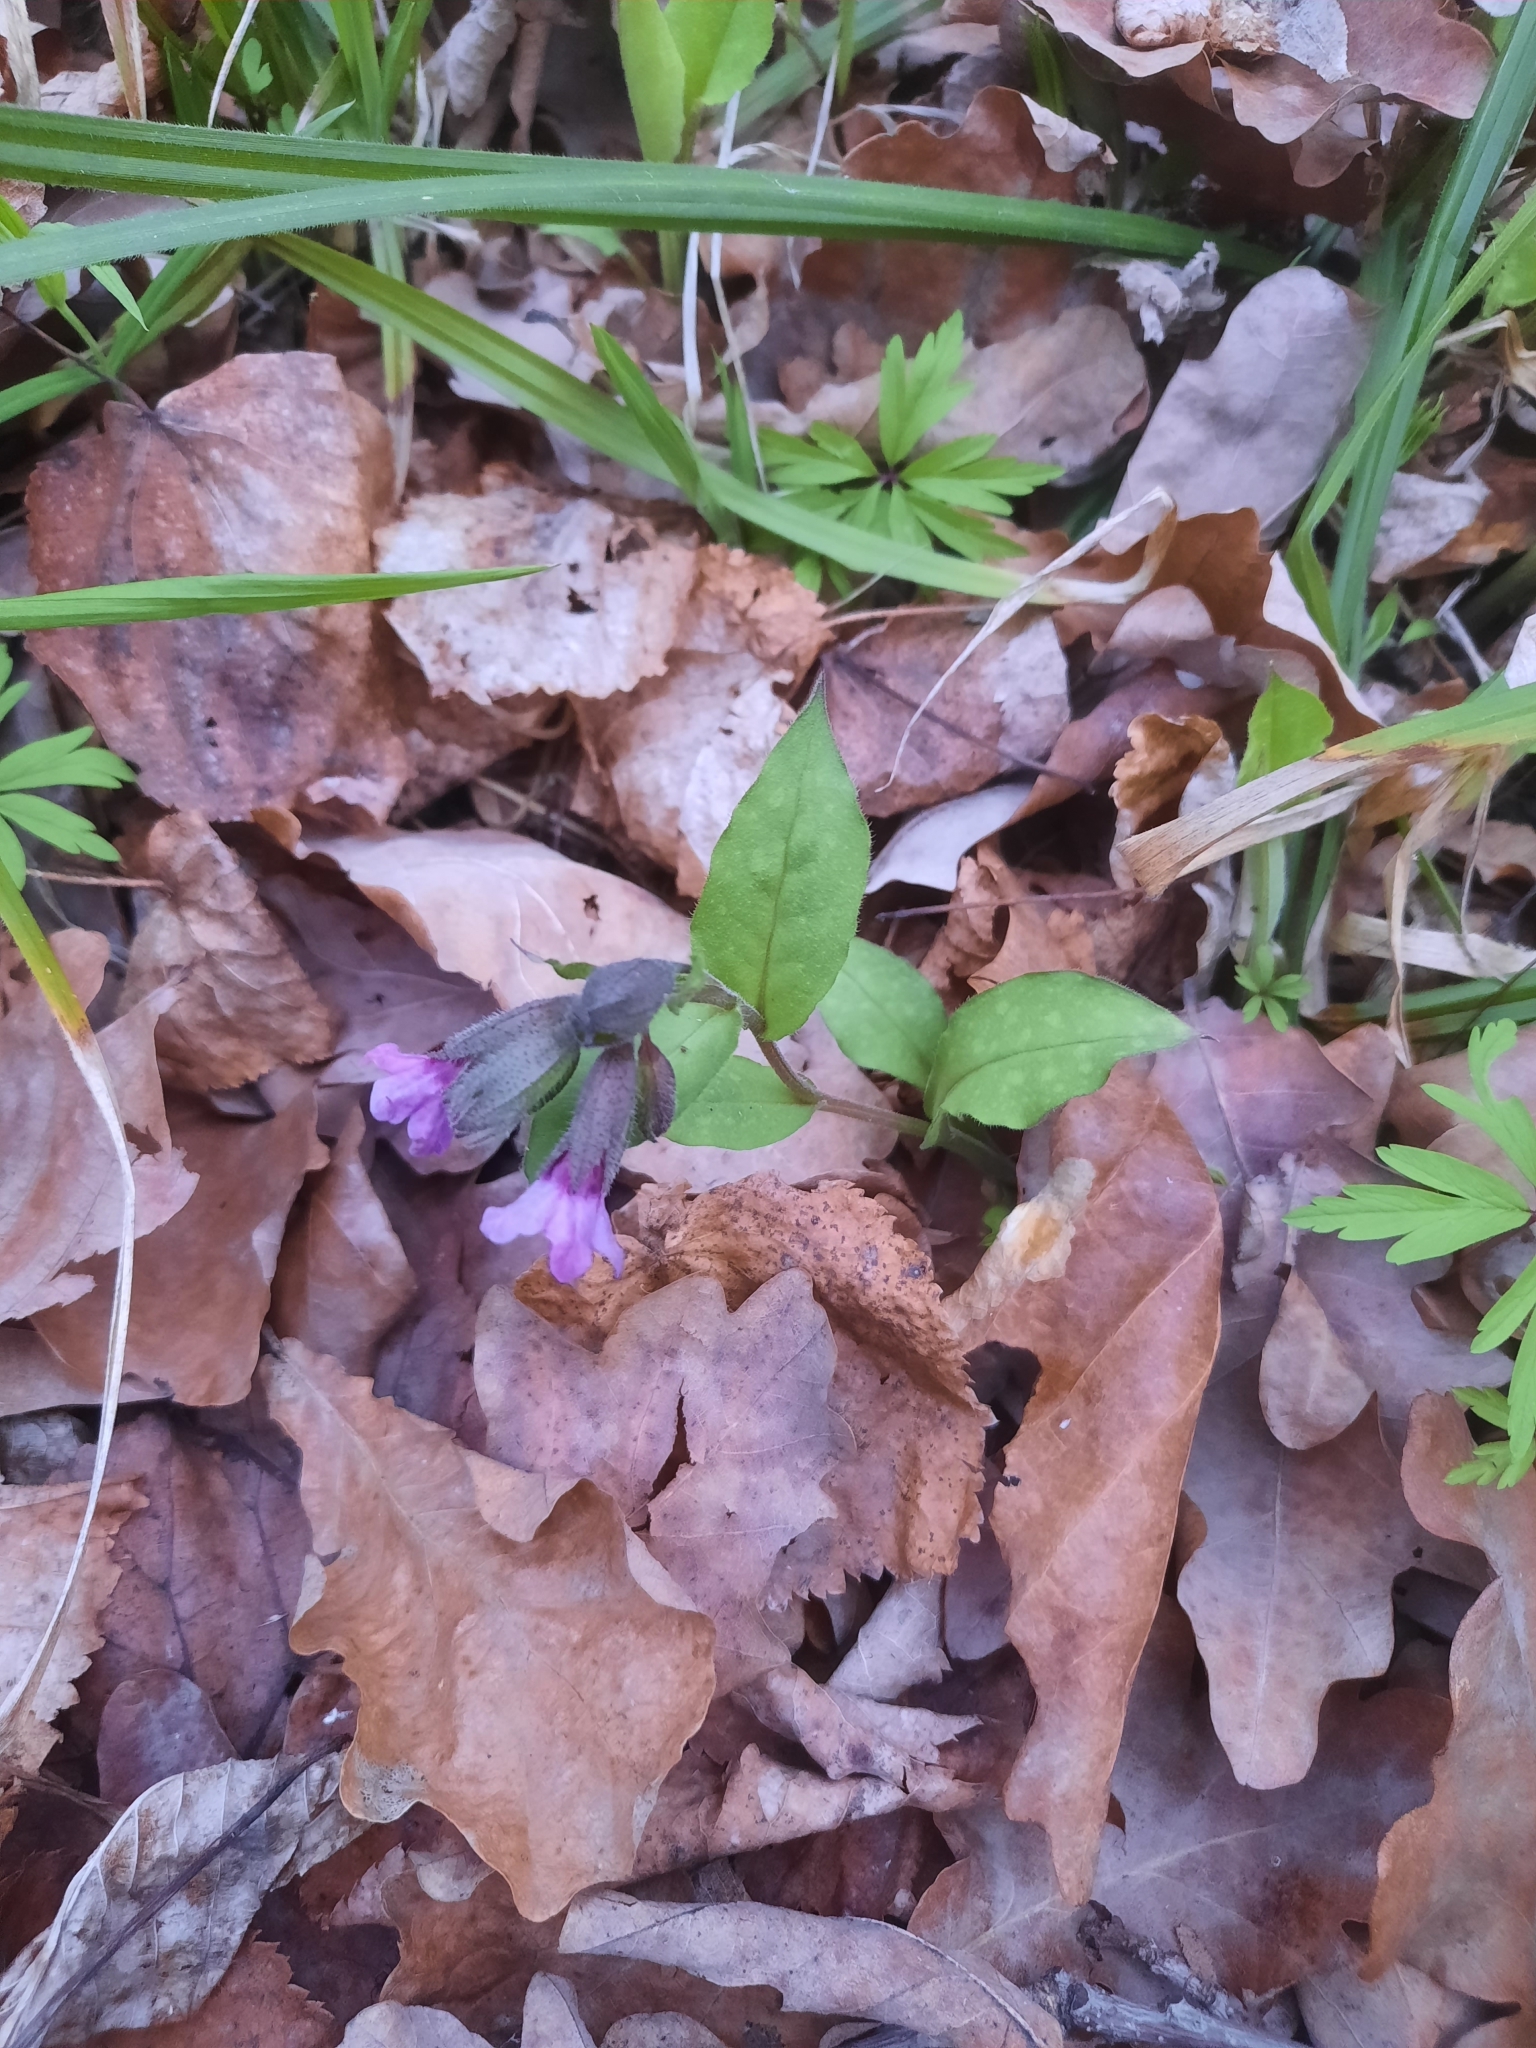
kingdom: Plantae
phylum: Tracheophyta
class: Magnoliopsida
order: Boraginales
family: Boraginaceae
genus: Pulmonaria
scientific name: Pulmonaria obscura
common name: Suffolk lungwort
